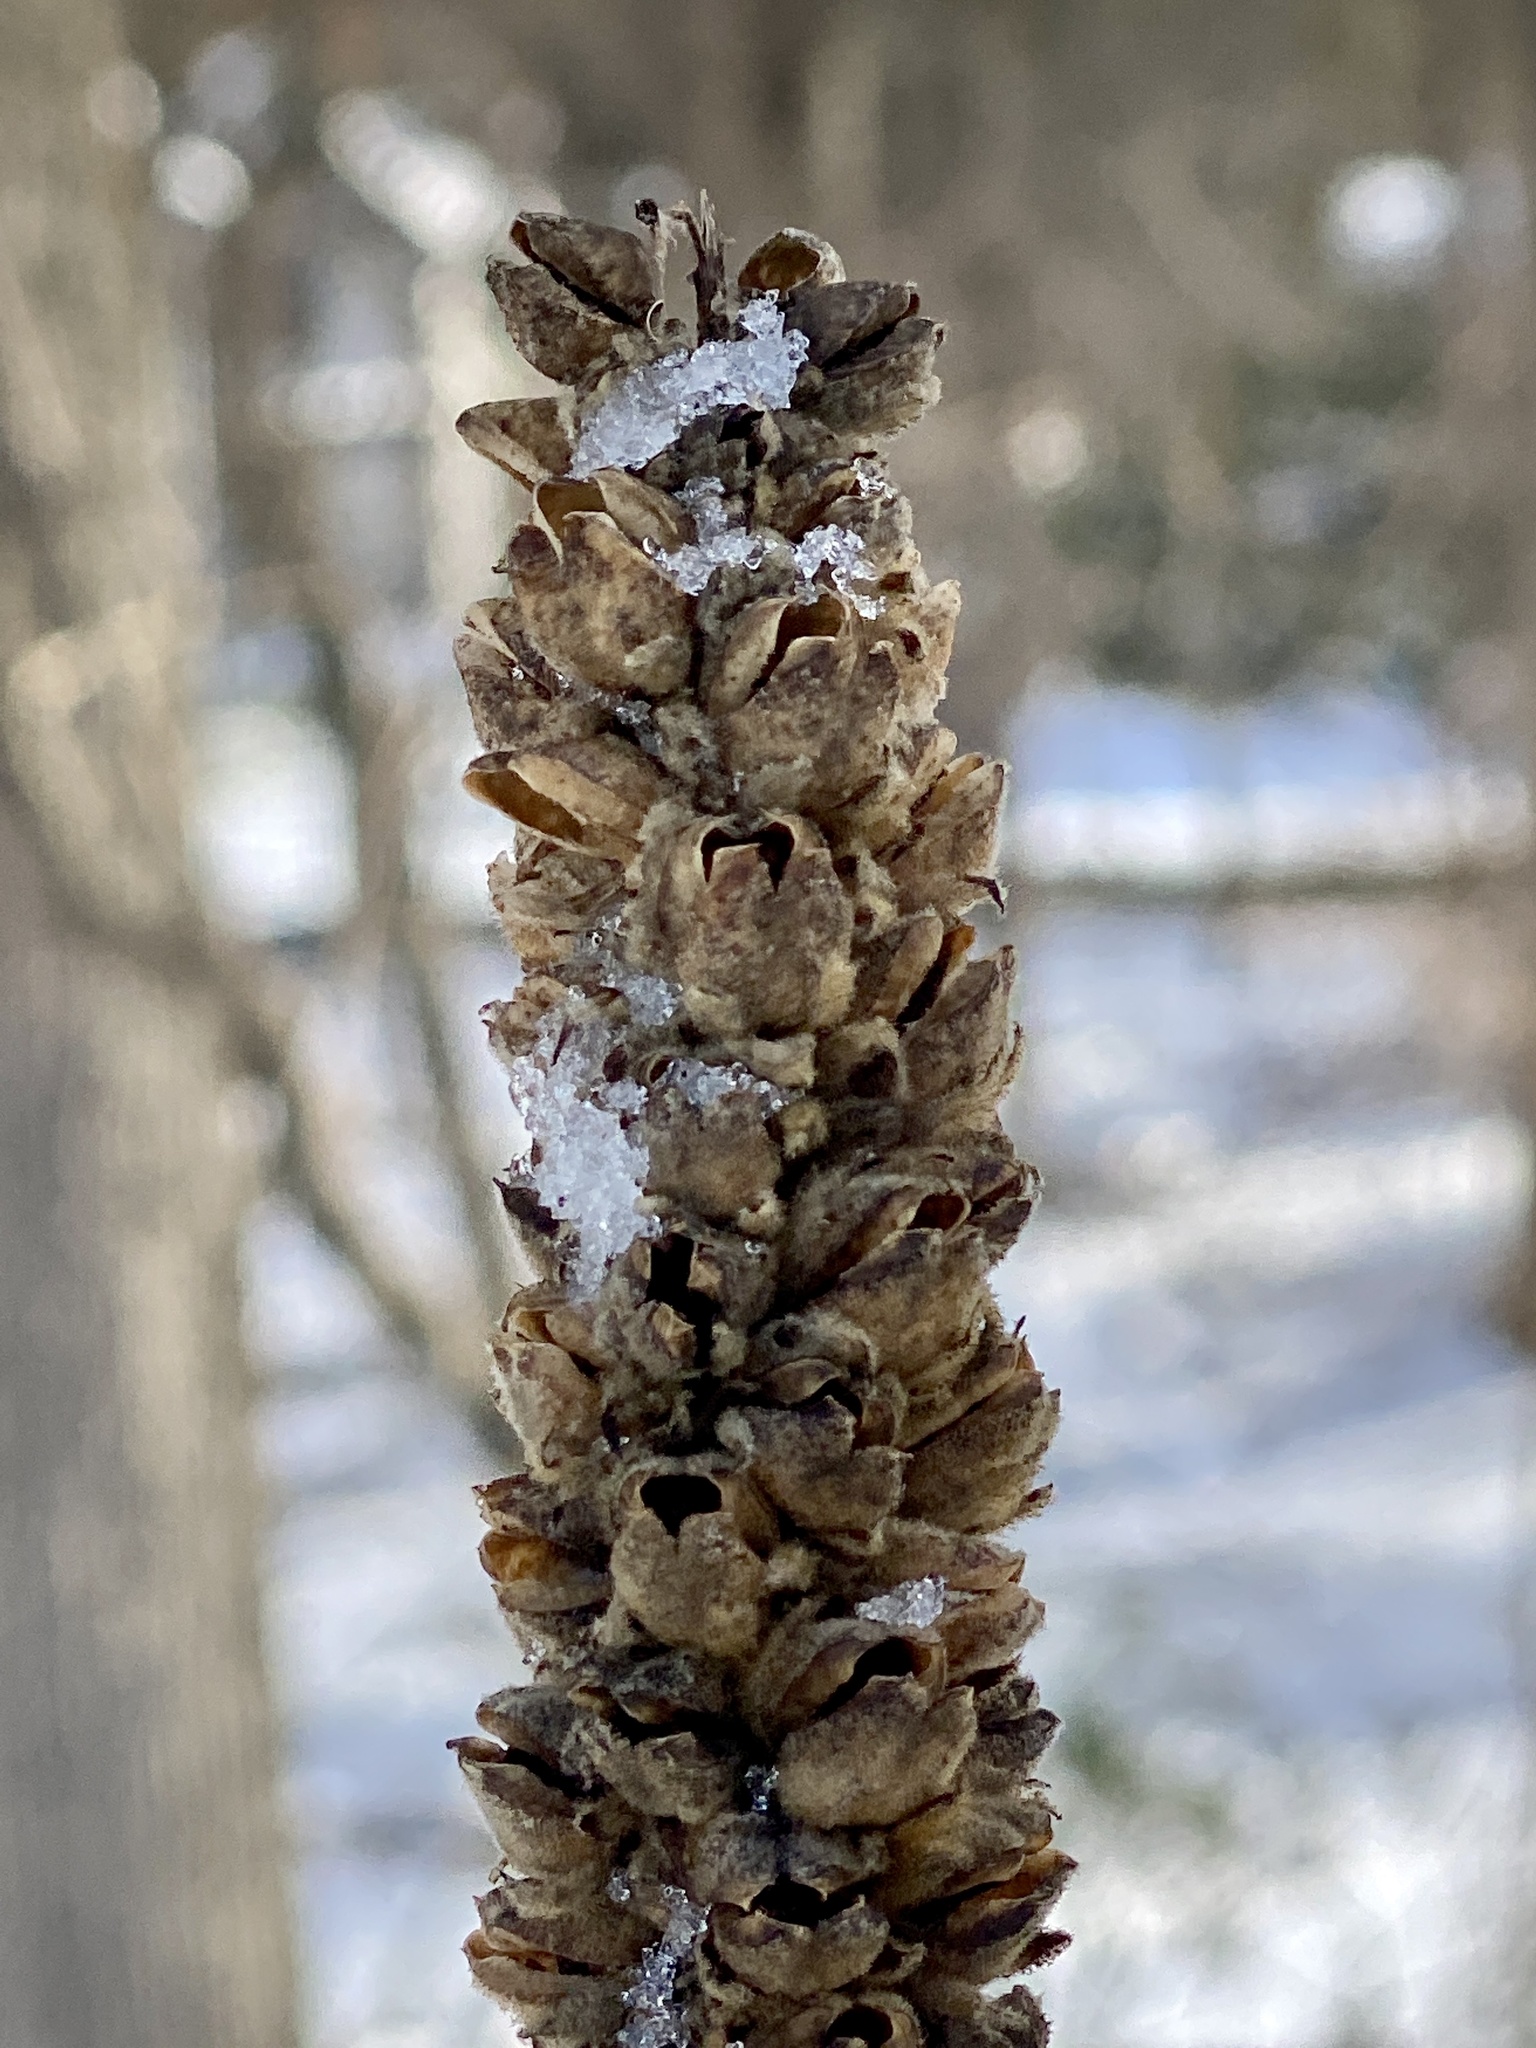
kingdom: Plantae
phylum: Tracheophyta
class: Magnoliopsida
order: Lamiales
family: Scrophulariaceae
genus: Verbascum
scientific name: Verbascum thapsus
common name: Common mullein
